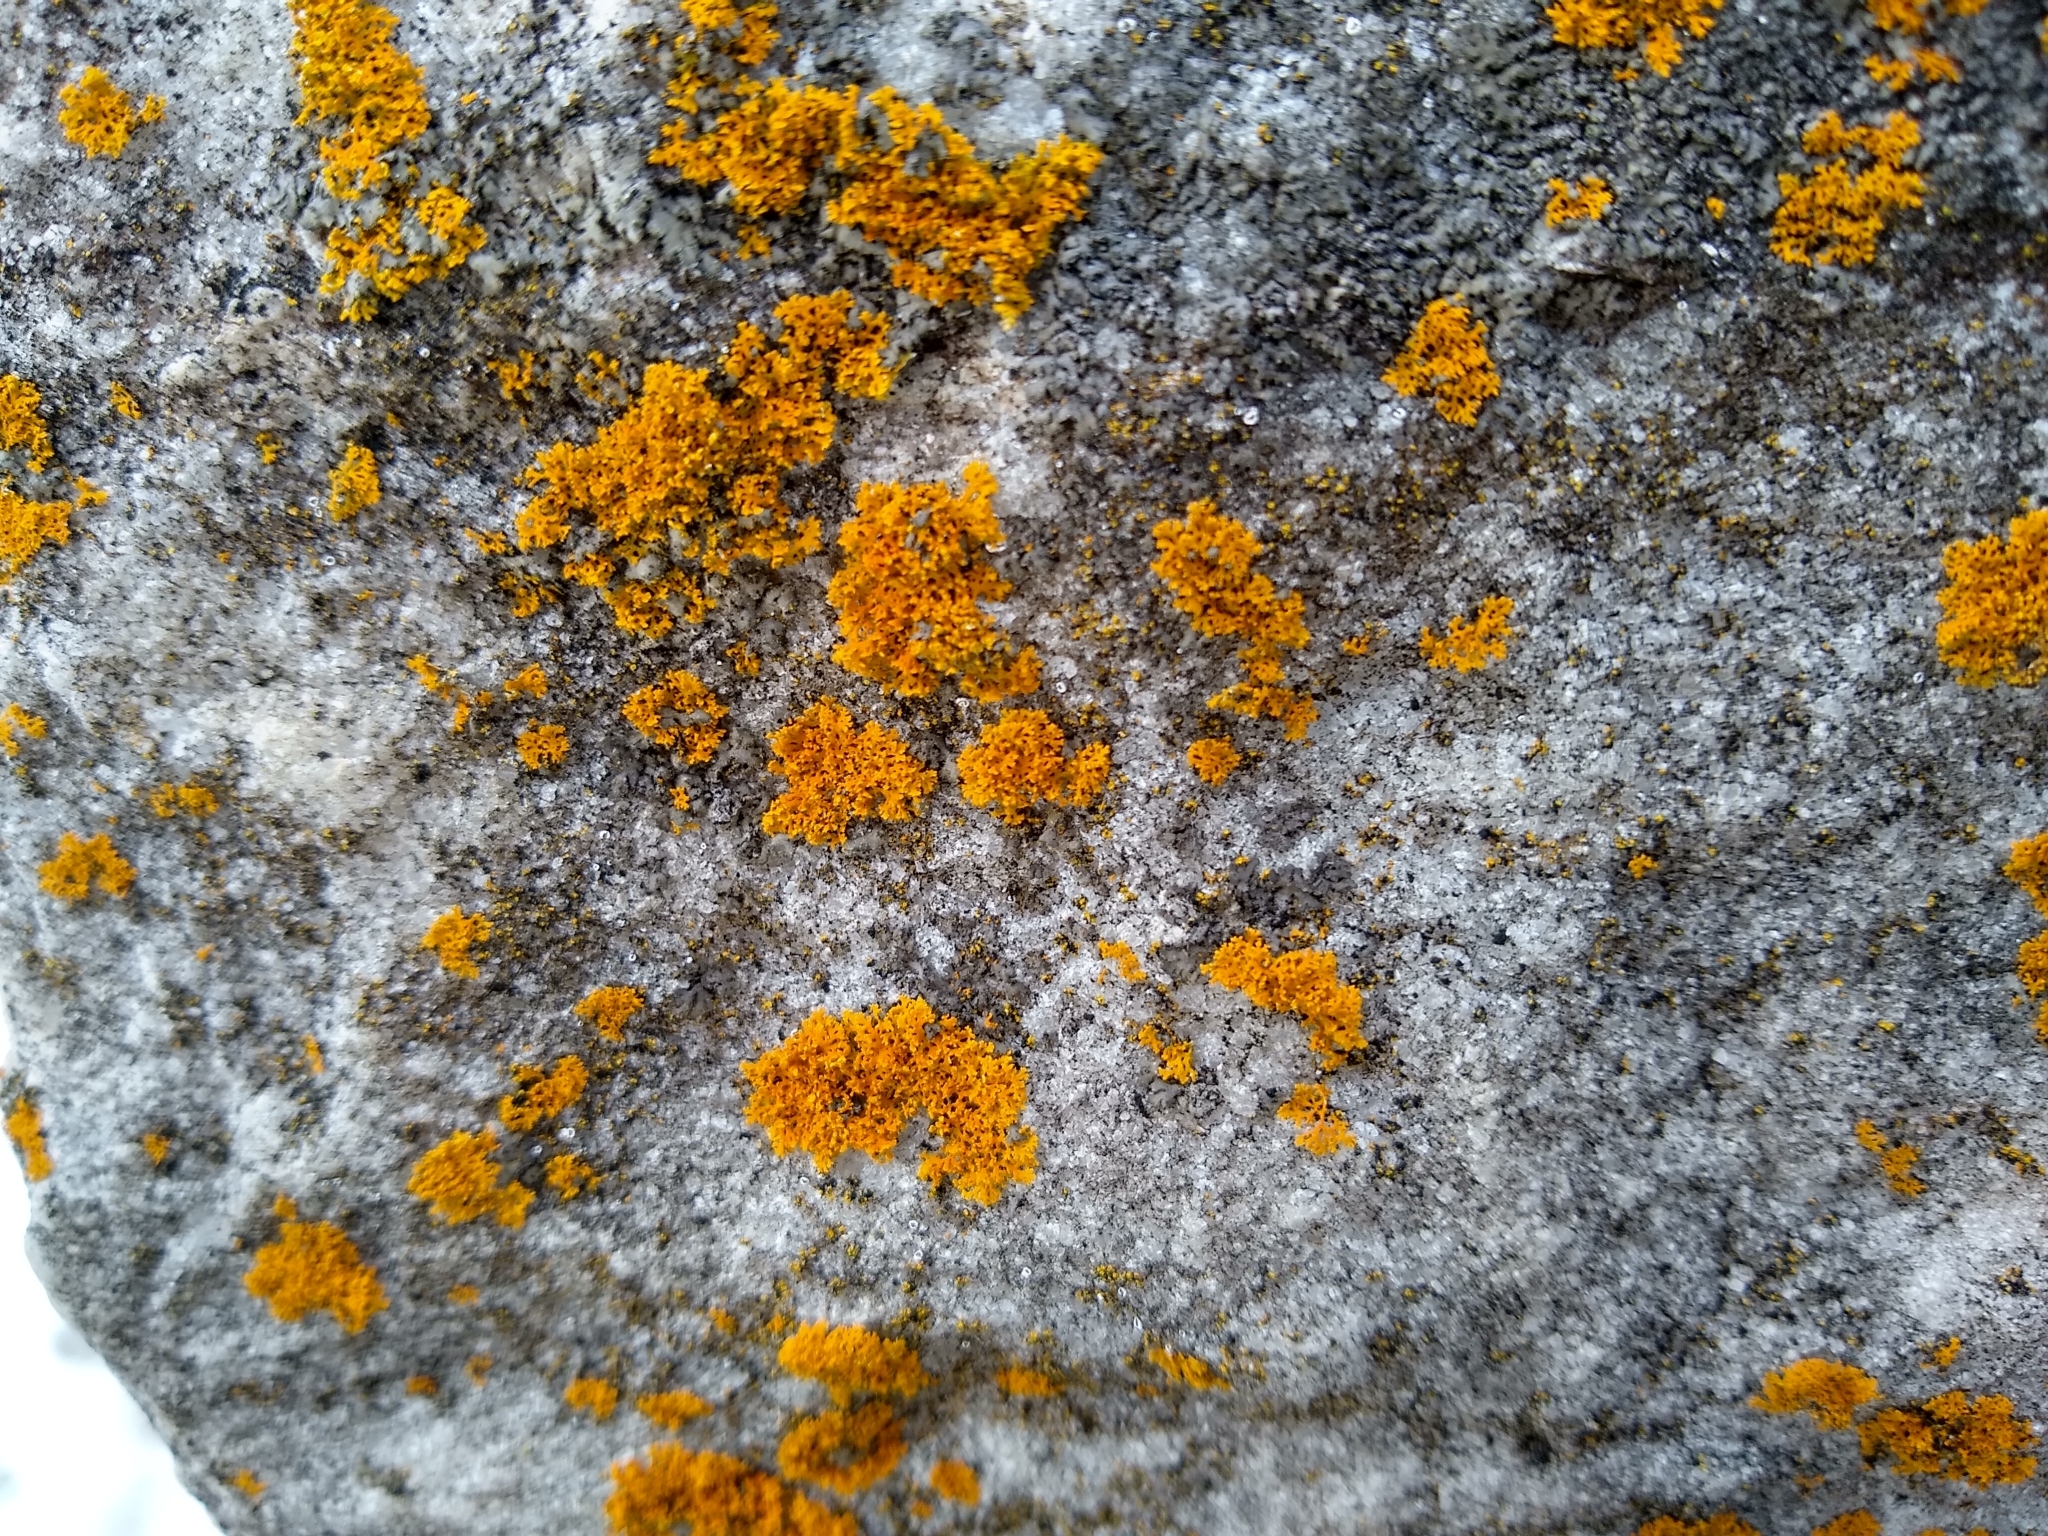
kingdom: Fungi
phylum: Ascomycota
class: Lecanoromycetes
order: Teloschistales
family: Teloschistaceae
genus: Gallowayella
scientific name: Gallowayella weberi
